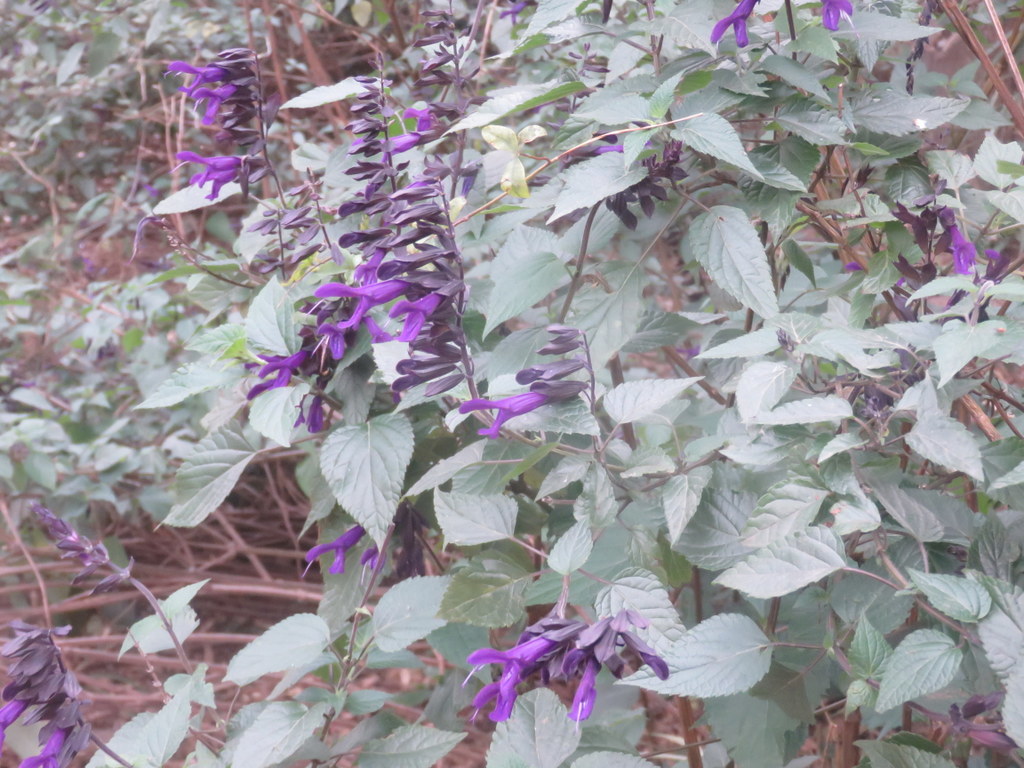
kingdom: Plantae
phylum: Tracheophyta
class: Magnoliopsida
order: Lamiales
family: Lamiaceae
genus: Salvia
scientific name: Salvia guaranitica
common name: Anise-scented sage
